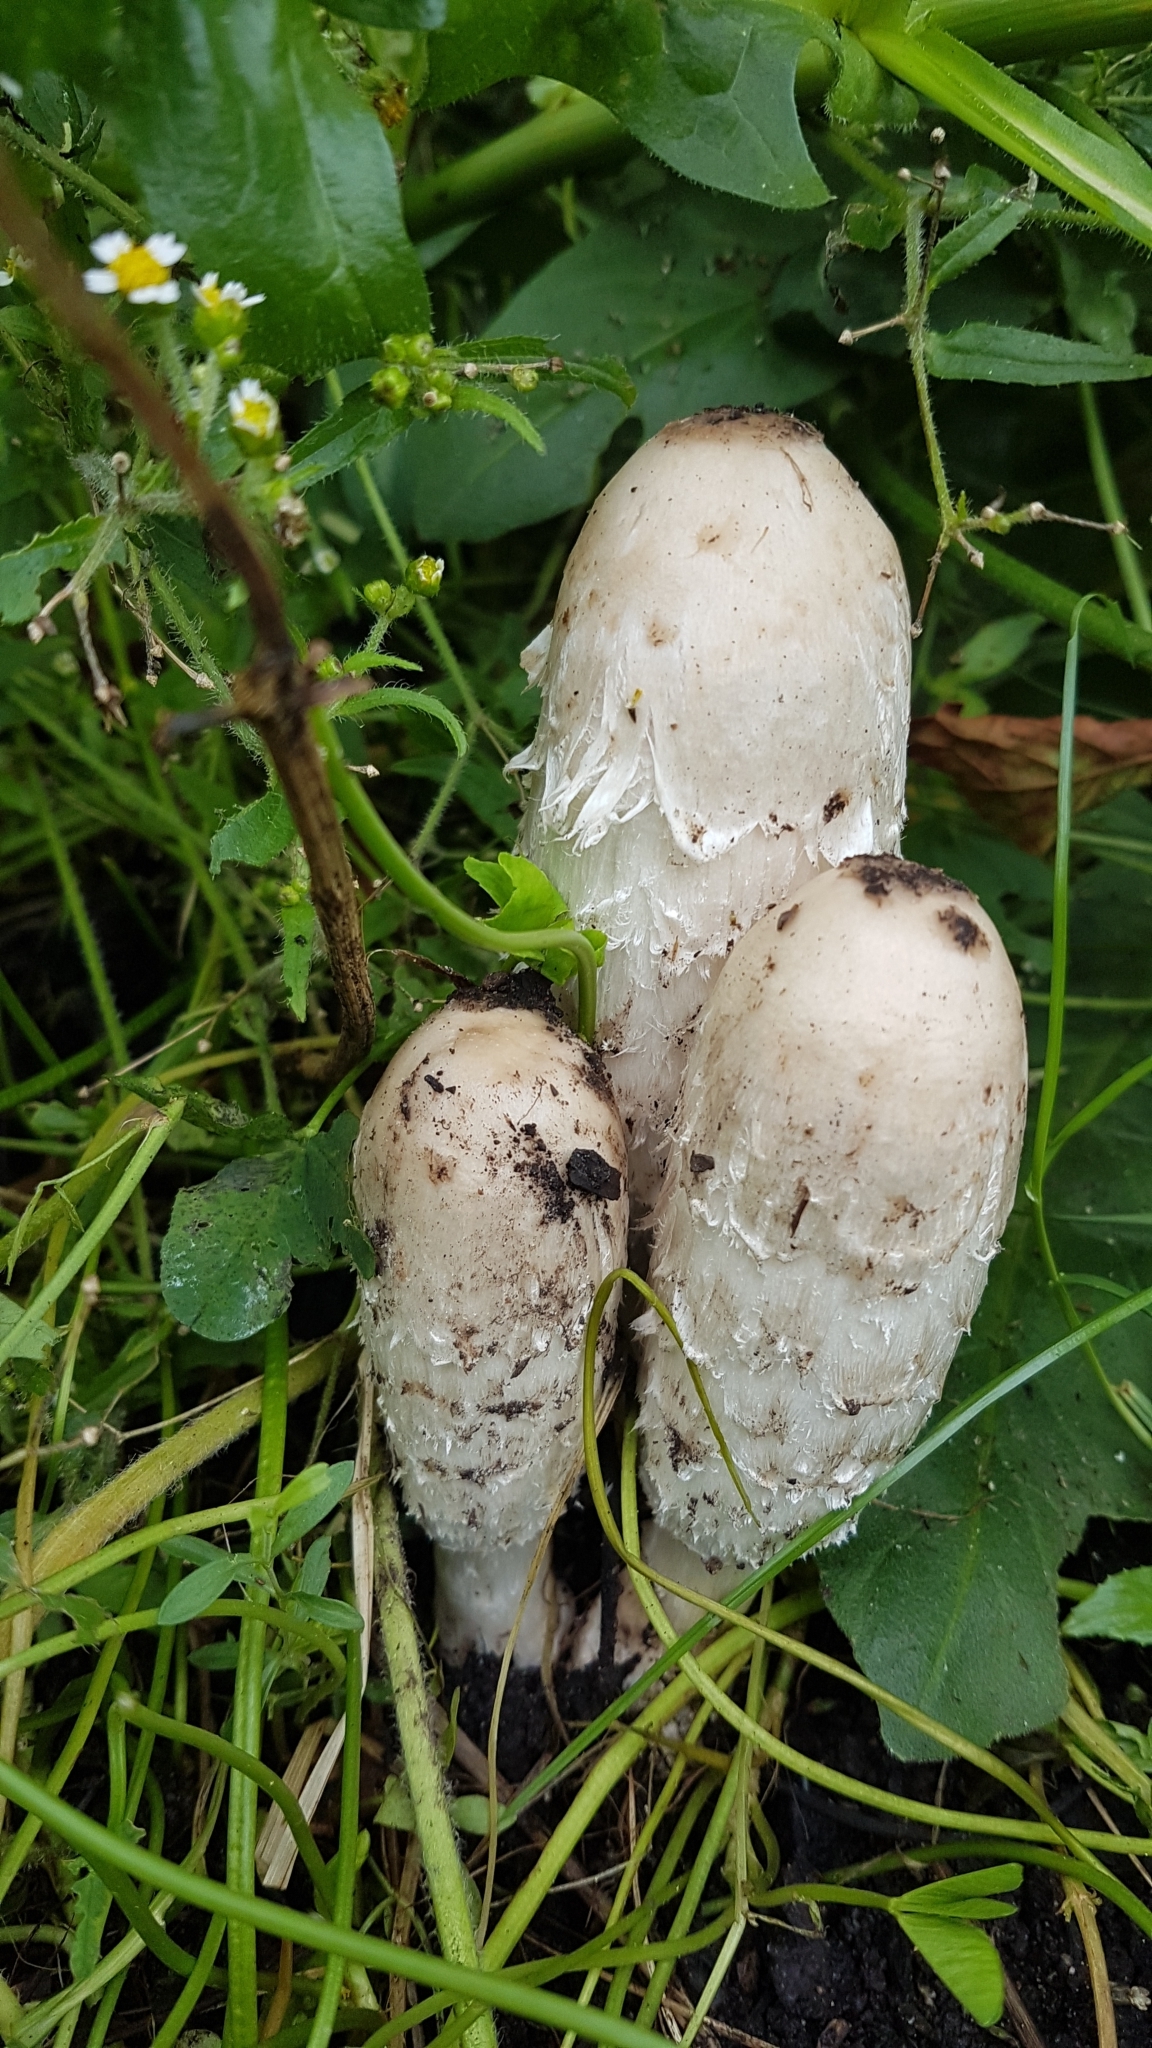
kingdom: Fungi
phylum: Basidiomycota
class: Agaricomycetes
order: Agaricales
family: Agaricaceae
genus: Coprinus
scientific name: Coprinus comatus
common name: Lawyer's wig
